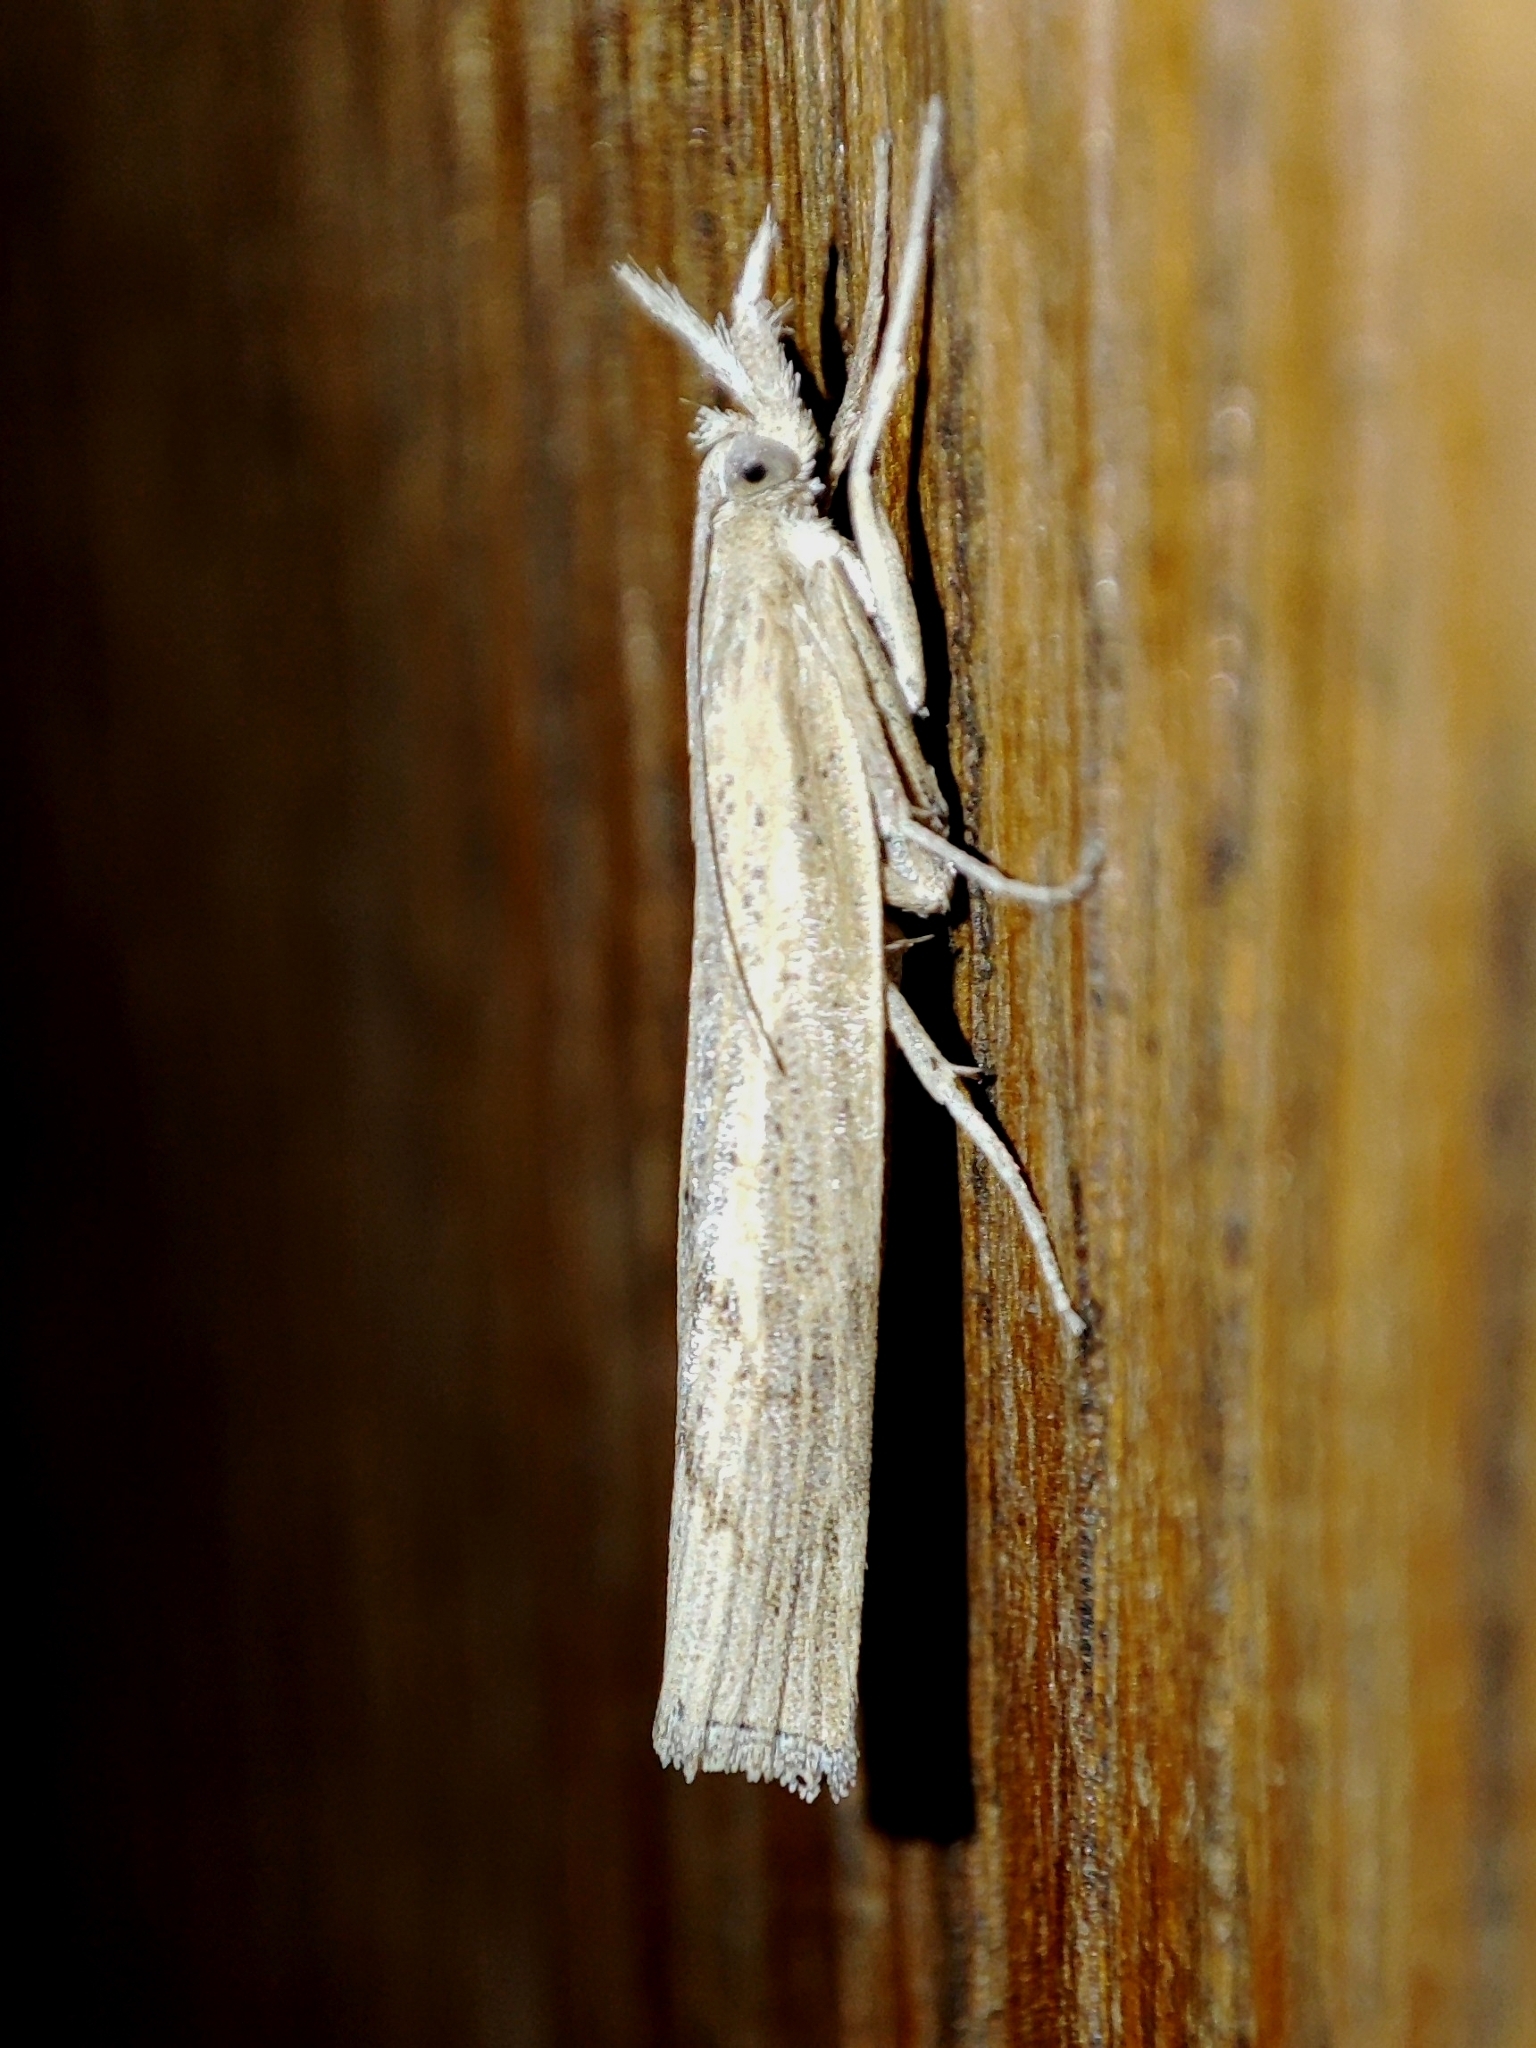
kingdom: Animalia
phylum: Arthropoda
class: Insecta
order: Lepidoptera
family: Crambidae
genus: Pediasia
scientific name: Pediasia contaminella
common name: Waste grass-veneer
